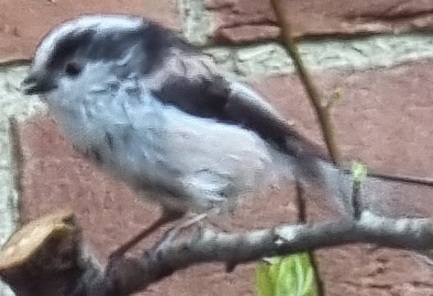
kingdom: Animalia
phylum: Chordata
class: Aves
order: Passeriformes
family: Aegithalidae
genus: Aegithalos
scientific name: Aegithalos caudatus
